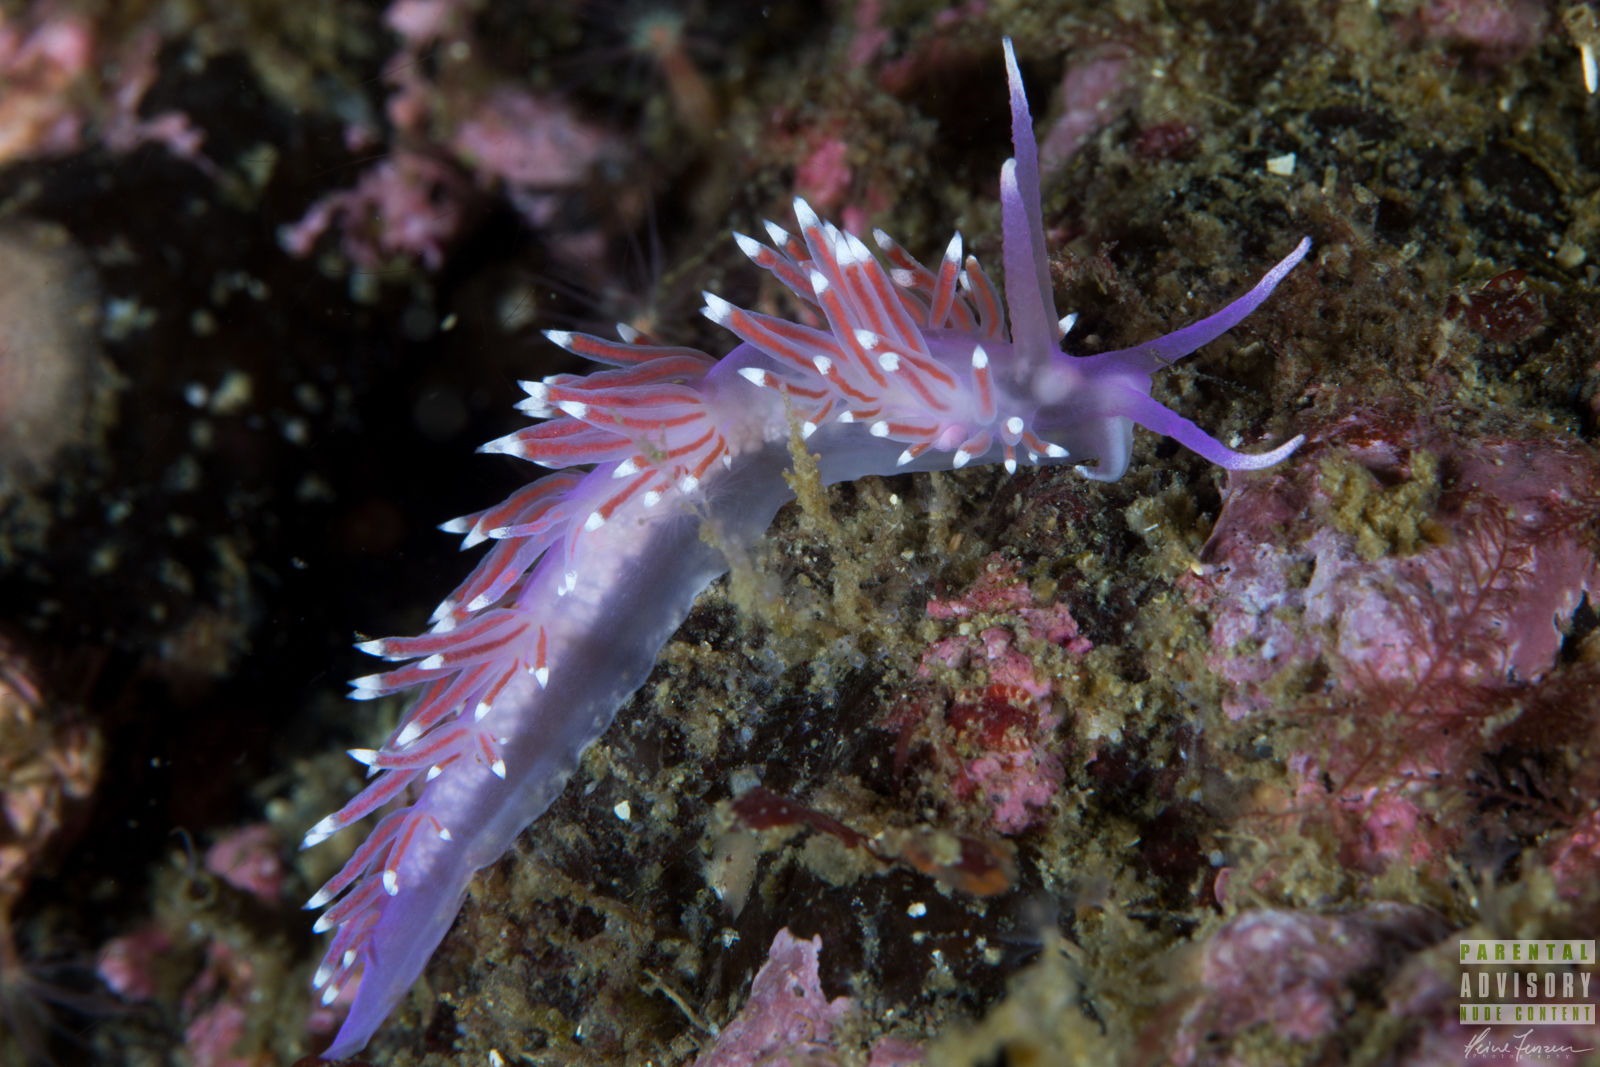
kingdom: Animalia
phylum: Mollusca
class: Gastropoda
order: Nudibranchia
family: Flabellinidae
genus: Edmundsella
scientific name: Edmundsella pedata
